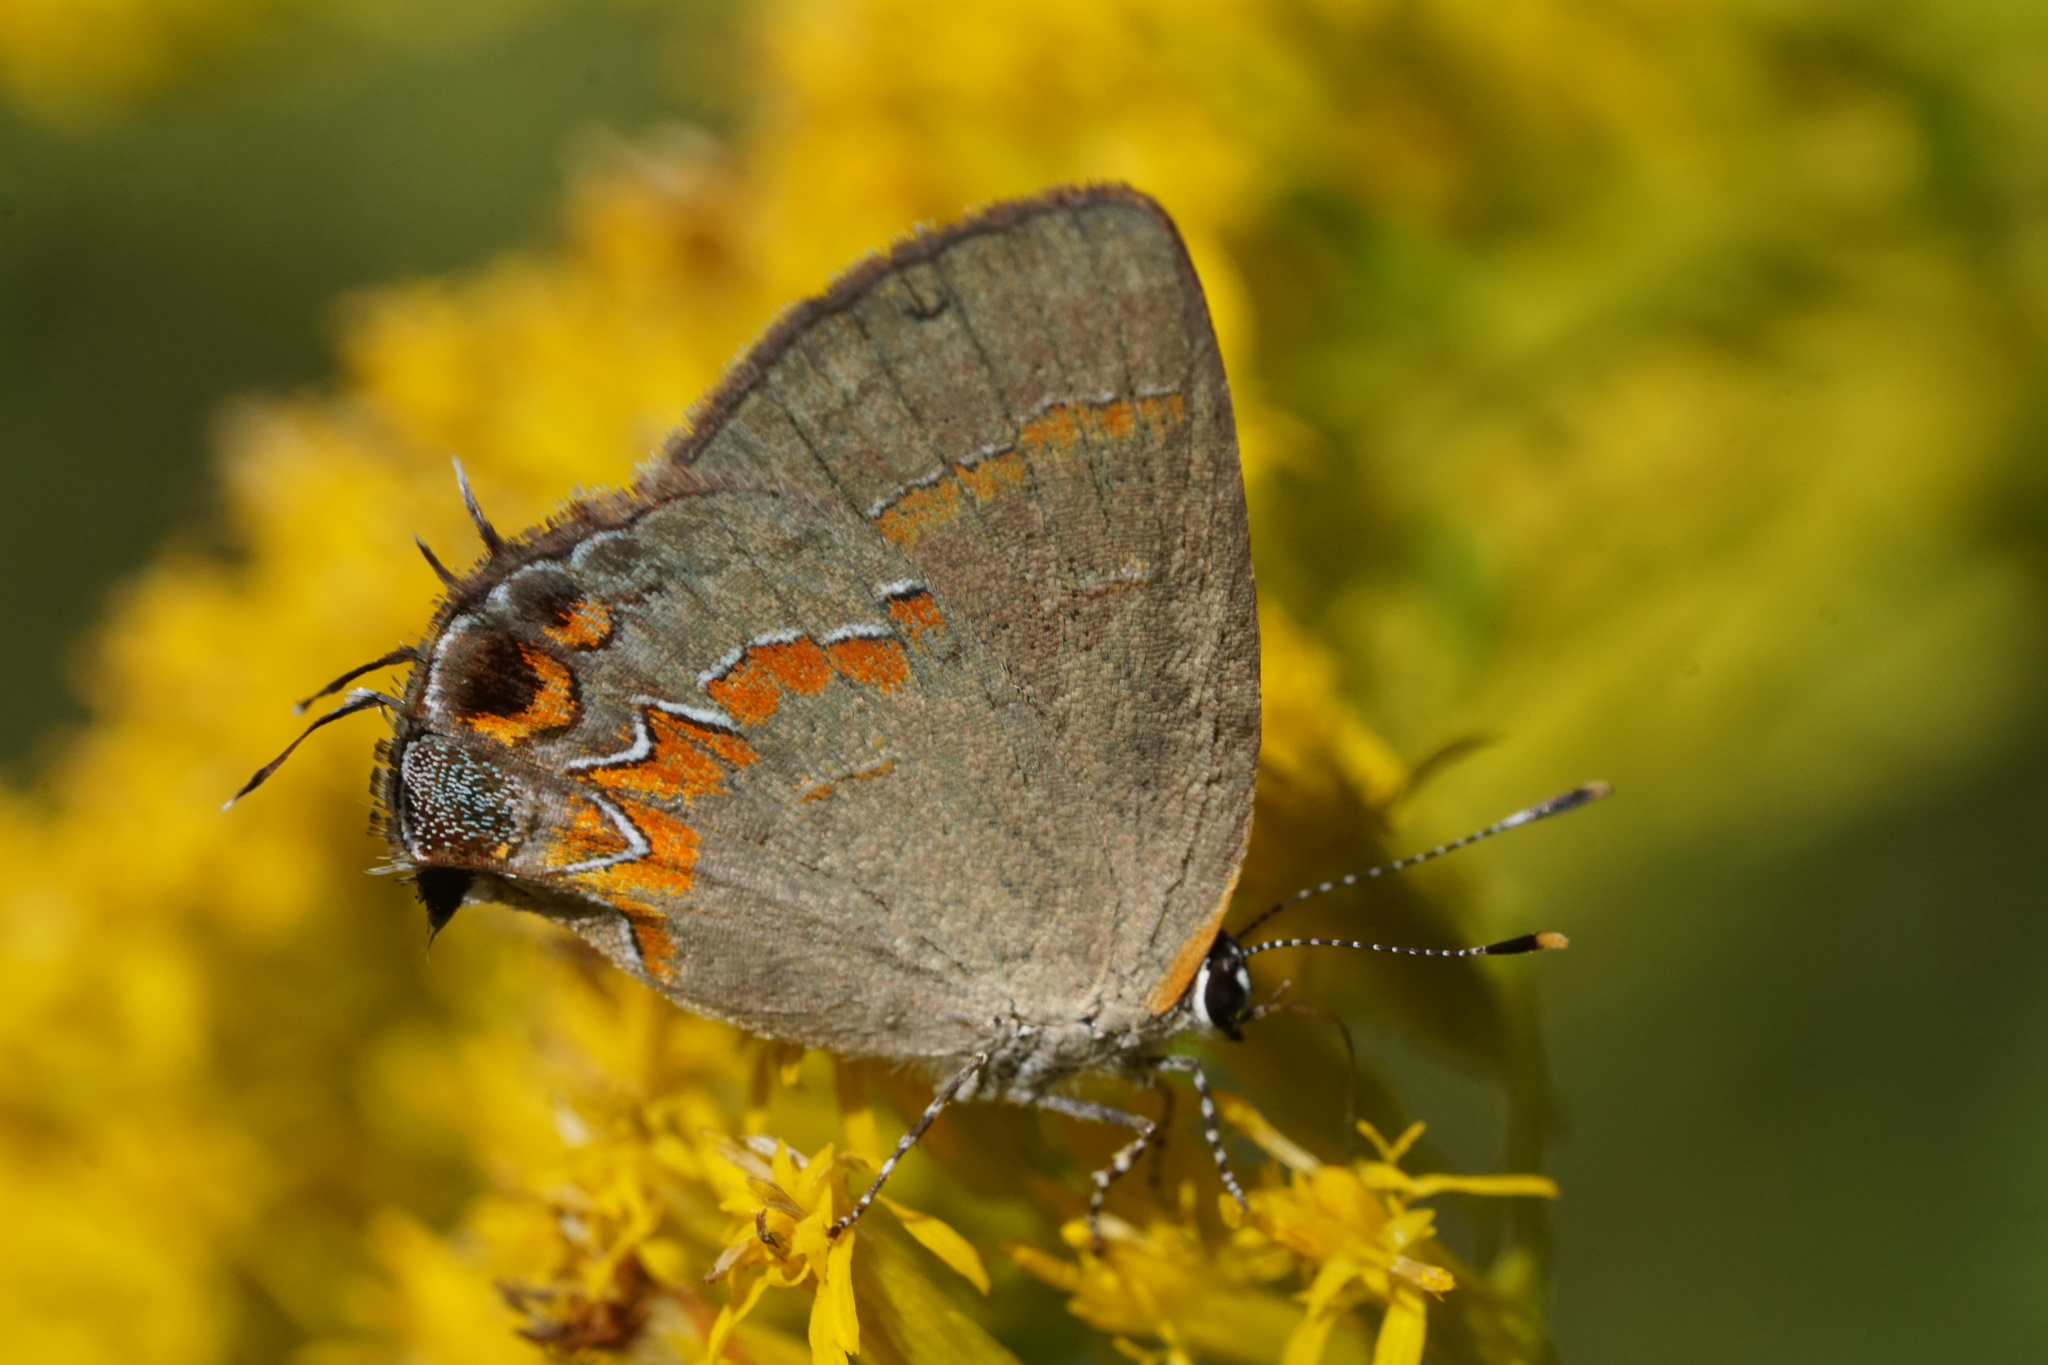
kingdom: Animalia
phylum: Arthropoda
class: Insecta
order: Lepidoptera
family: Lycaenidae
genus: Calycopis
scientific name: Calycopis cecrops
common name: Red-banded hairstreak
